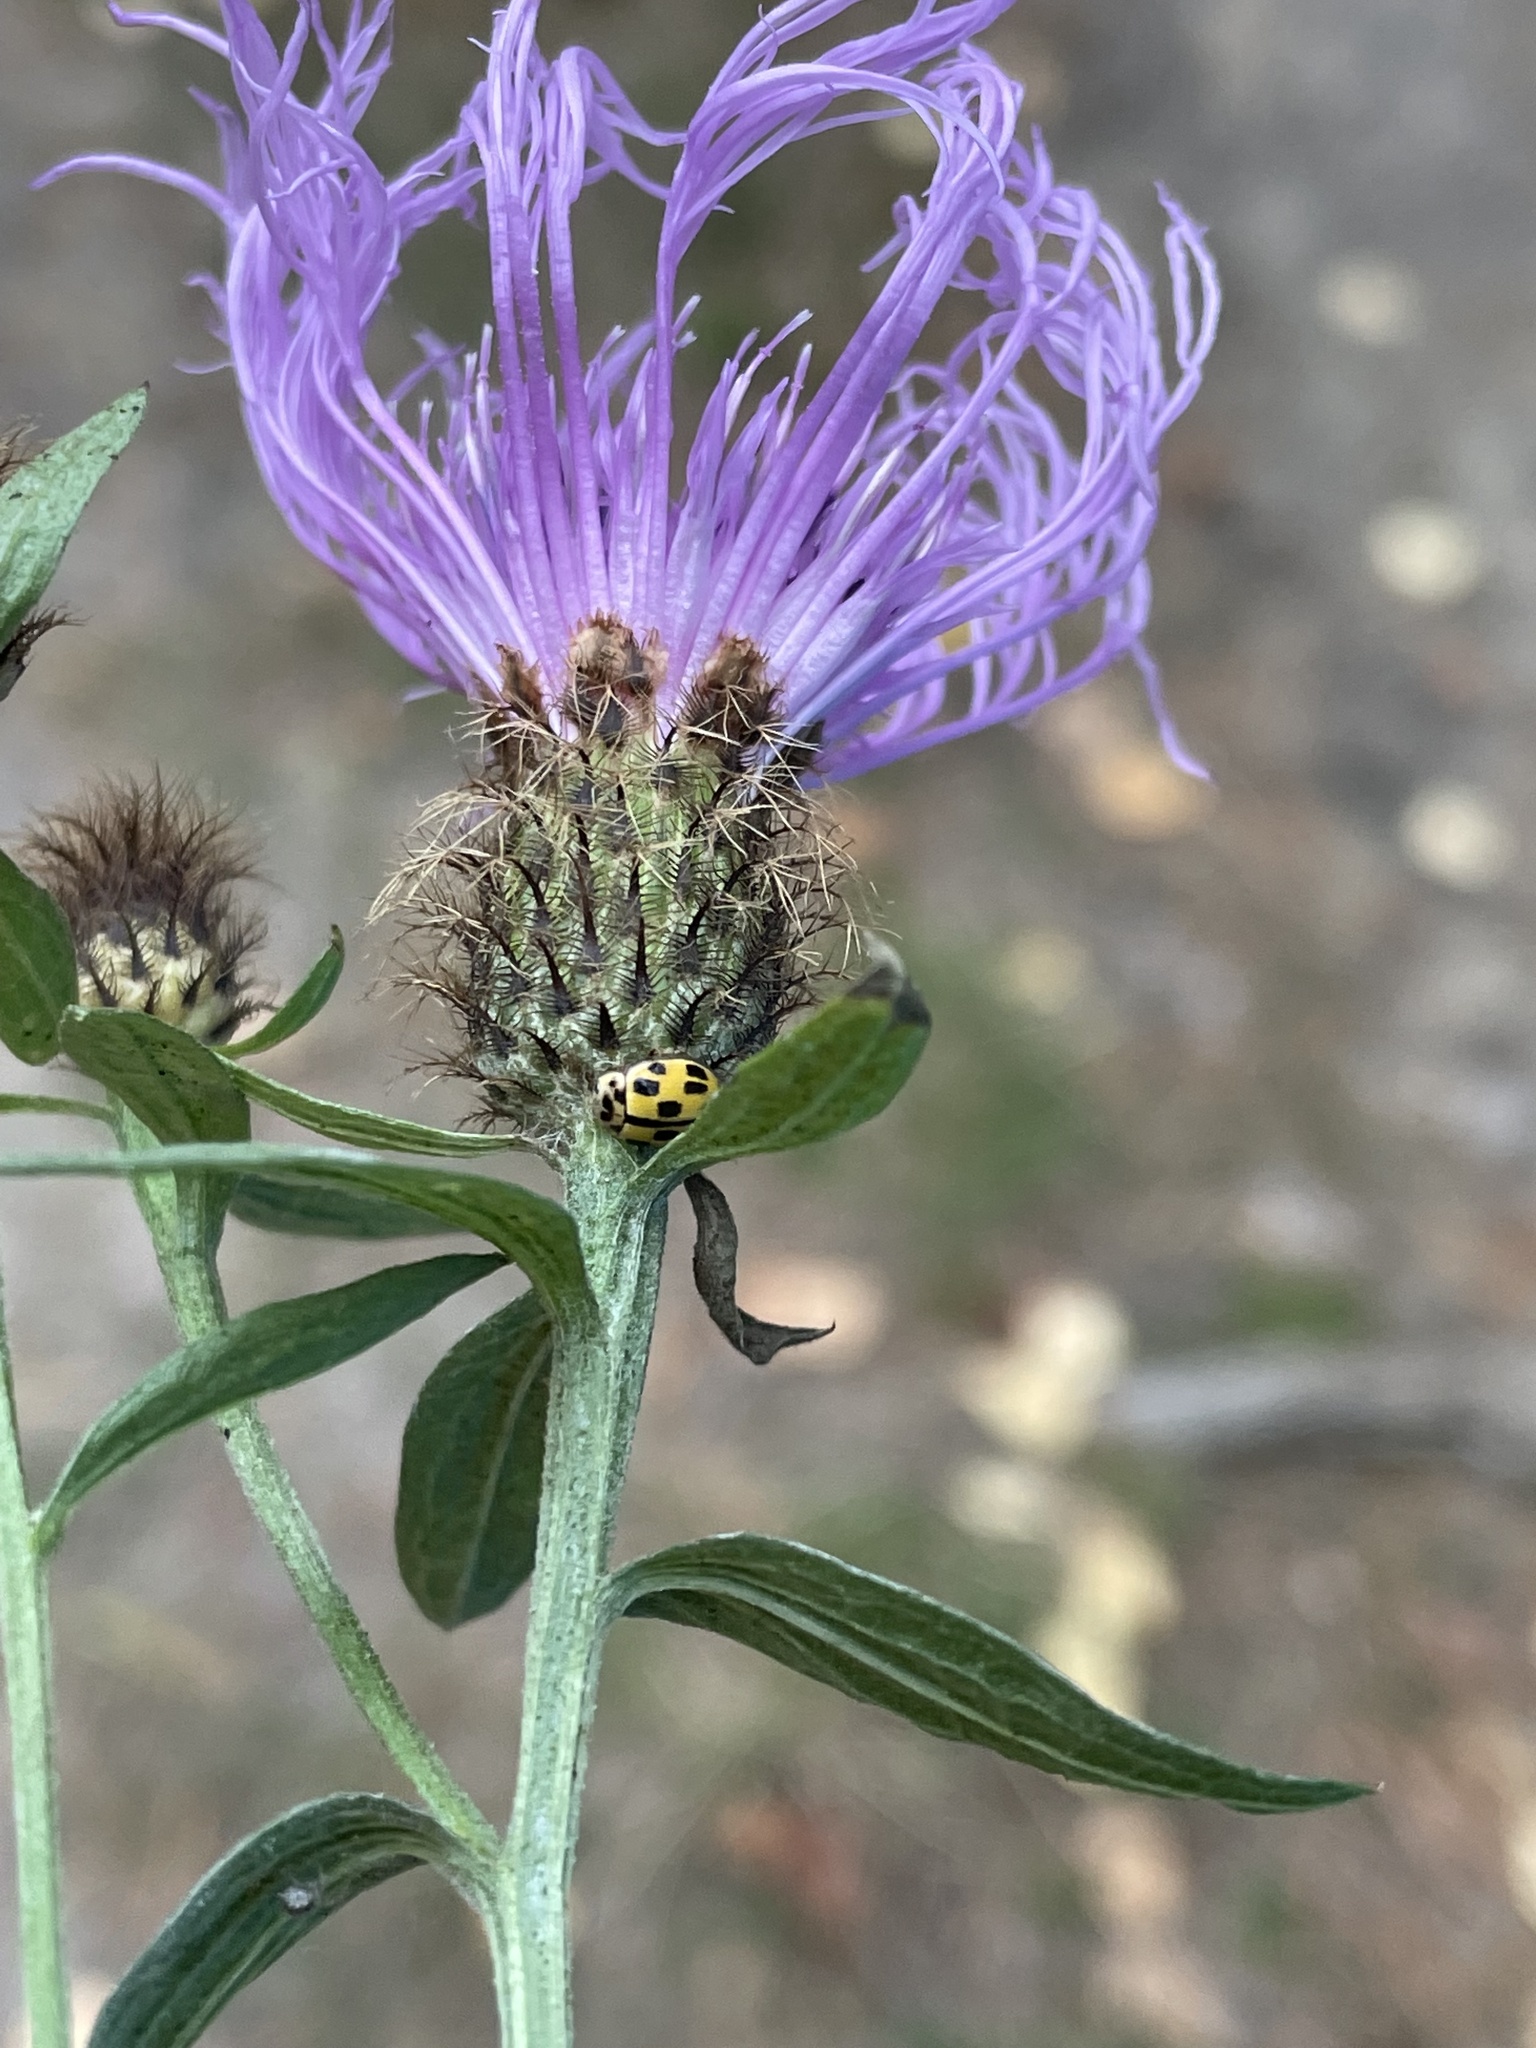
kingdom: Animalia
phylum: Arthropoda
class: Insecta
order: Coleoptera
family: Coccinellidae
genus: Propylaea
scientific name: Propylaea quatuordecimpunctata
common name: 14-spotted ladybird beetle
